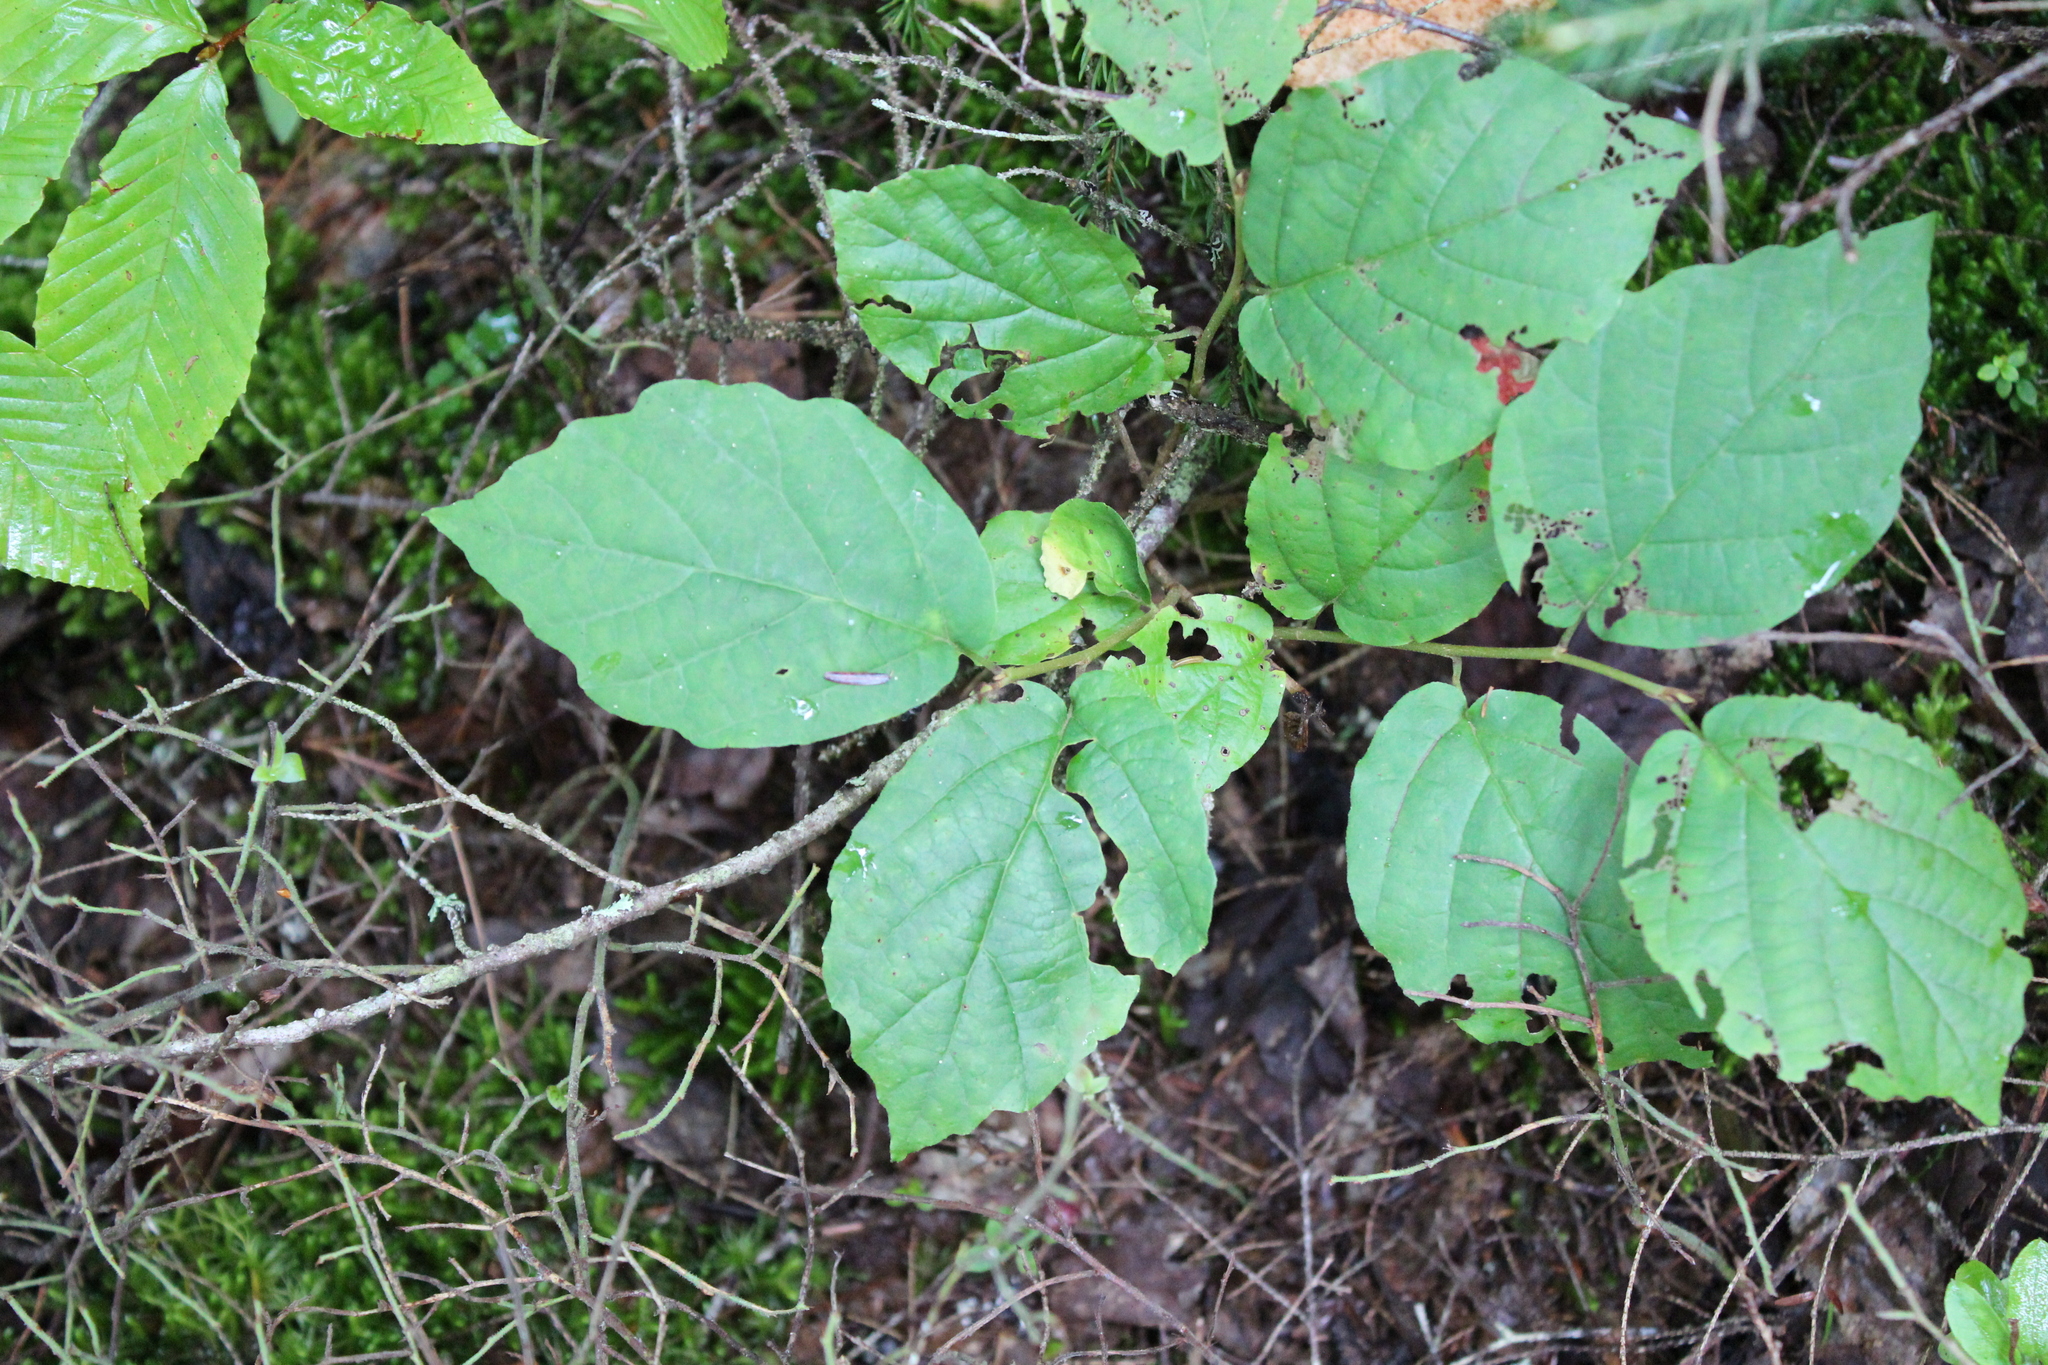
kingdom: Plantae
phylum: Tracheophyta
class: Magnoliopsida
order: Saxifragales
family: Hamamelidaceae
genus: Hamamelis
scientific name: Hamamelis virginiana
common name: Witch-hazel
